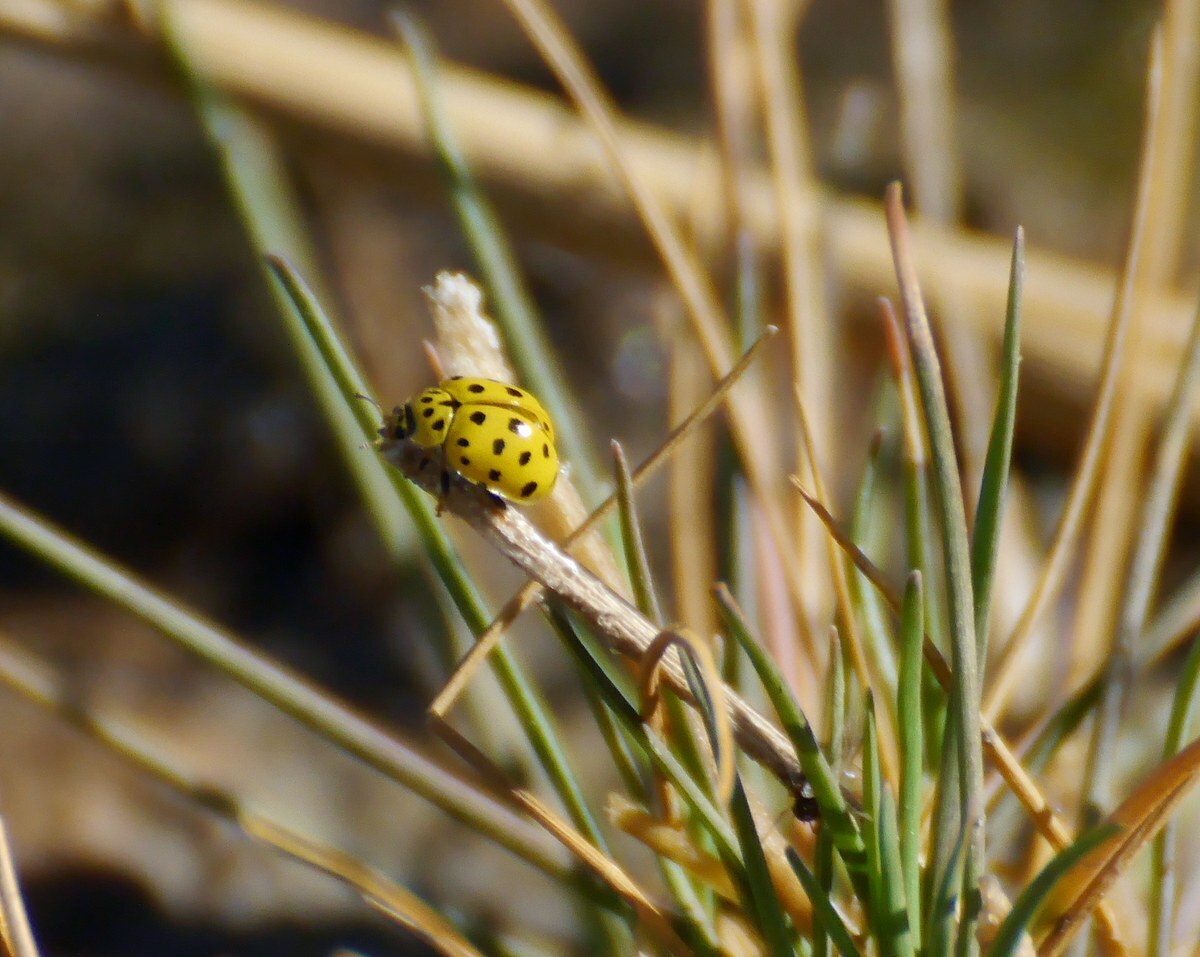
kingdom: Animalia
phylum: Arthropoda
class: Insecta
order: Coleoptera
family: Coccinellidae
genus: Psyllobora
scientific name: Psyllobora vigintiduopunctata
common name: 22-spot ladybird
